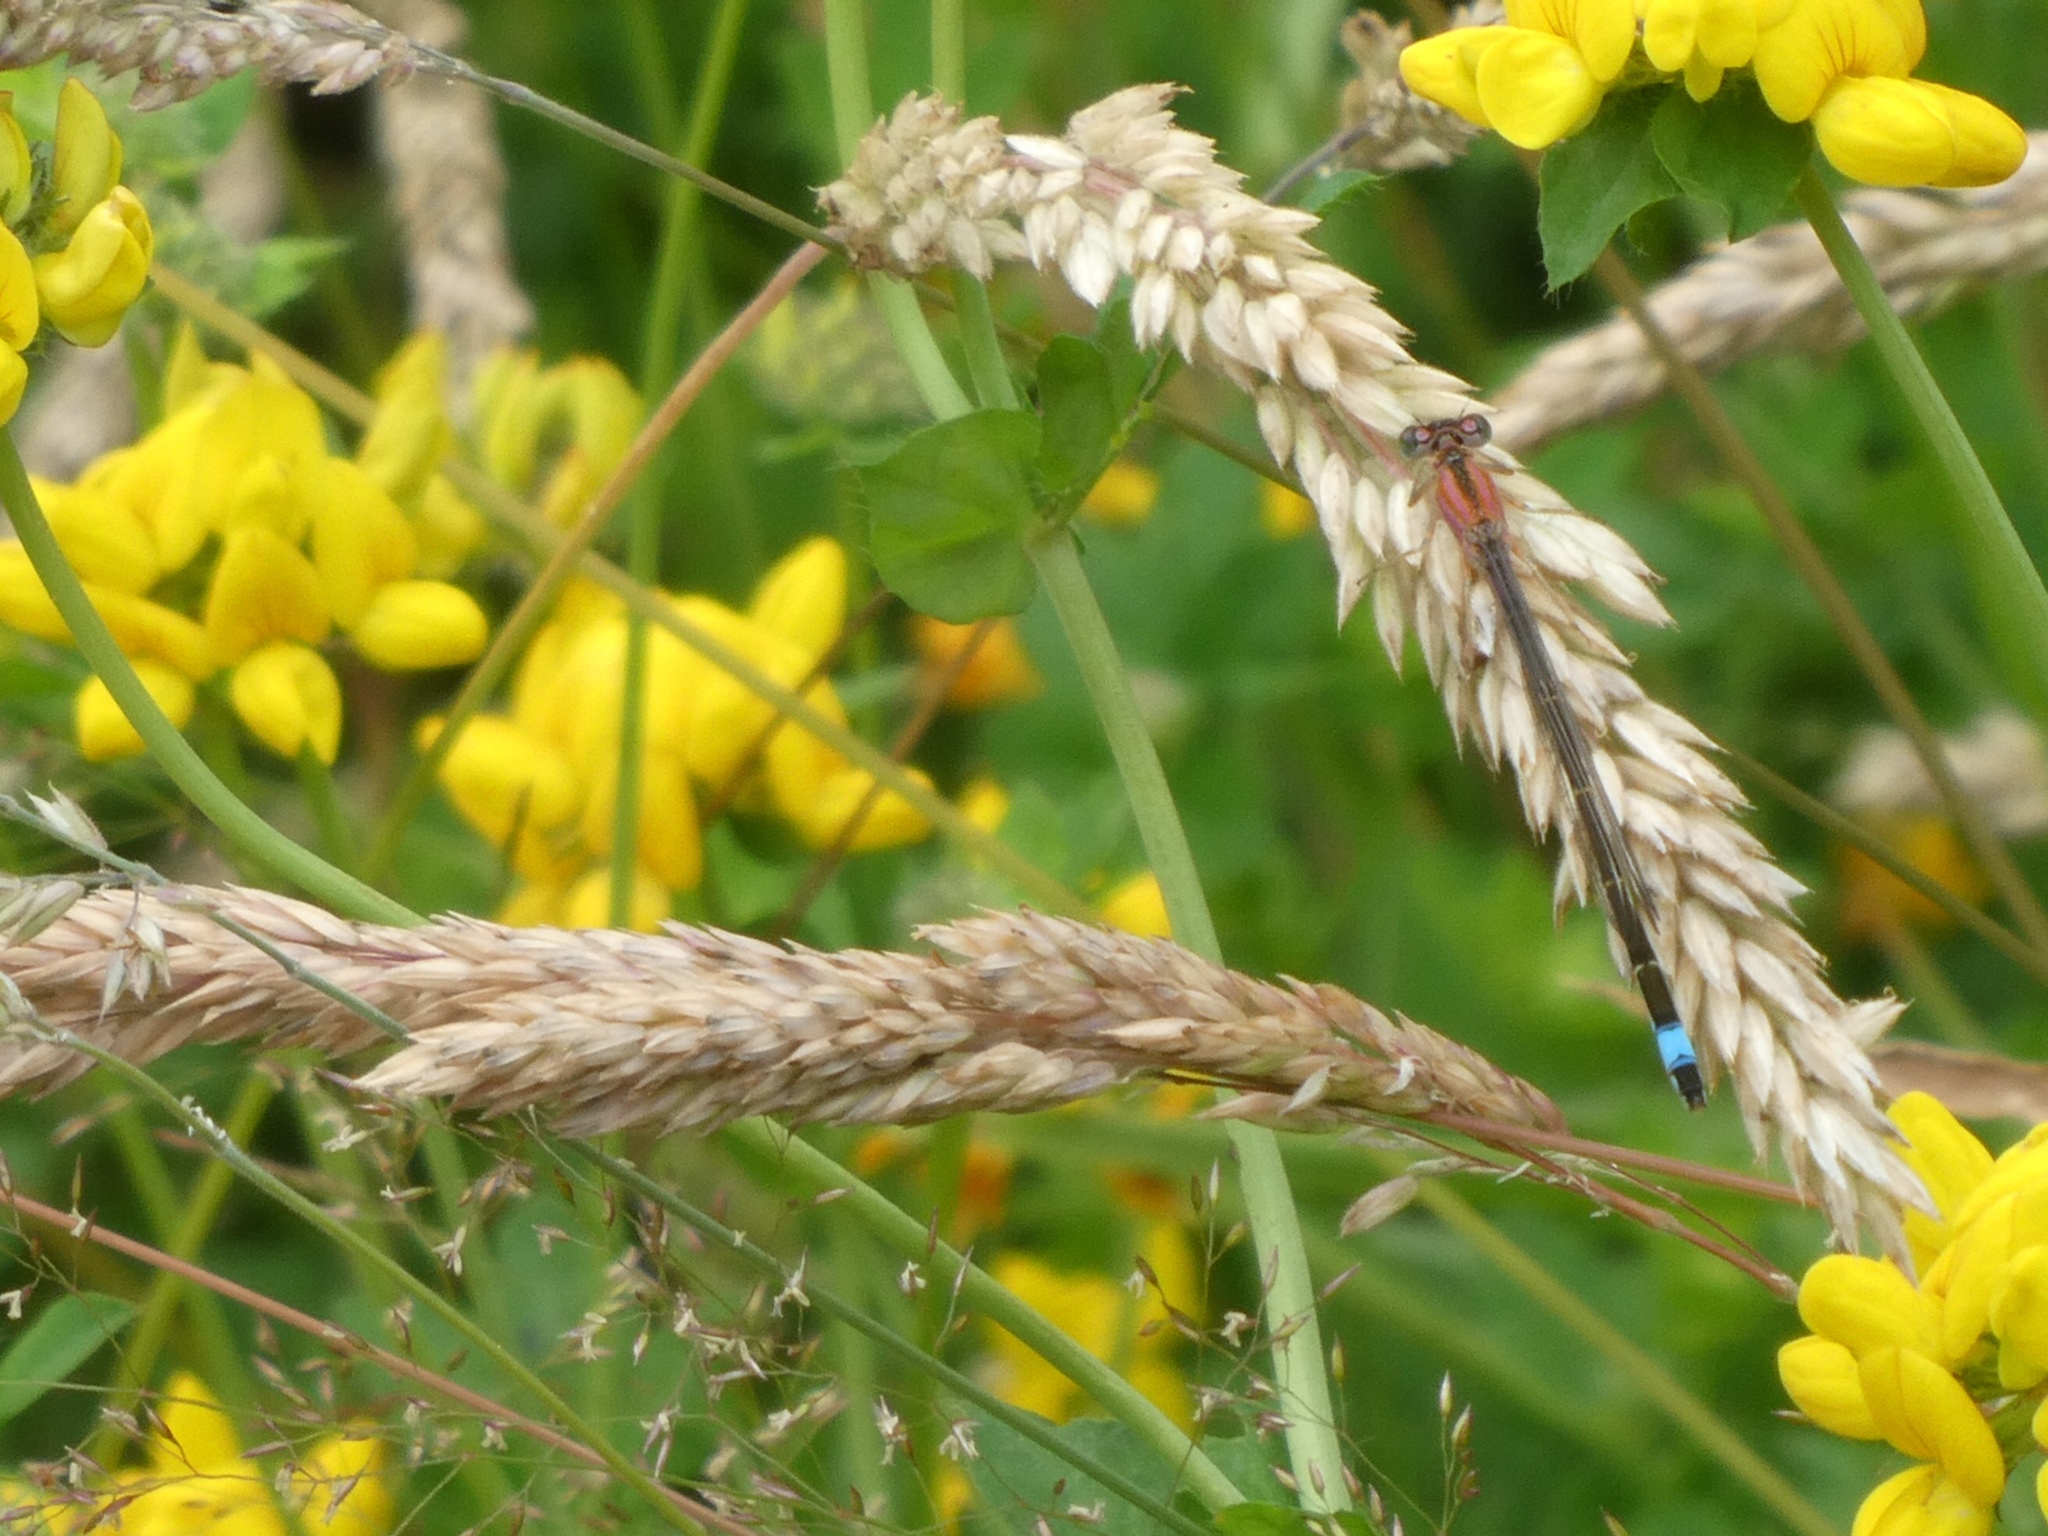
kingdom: Animalia
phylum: Arthropoda
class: Insecta
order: Odonata
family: Coenagrionidae
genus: Ischnura
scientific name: Ischnura elegans
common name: Blue-tailed damselfly
